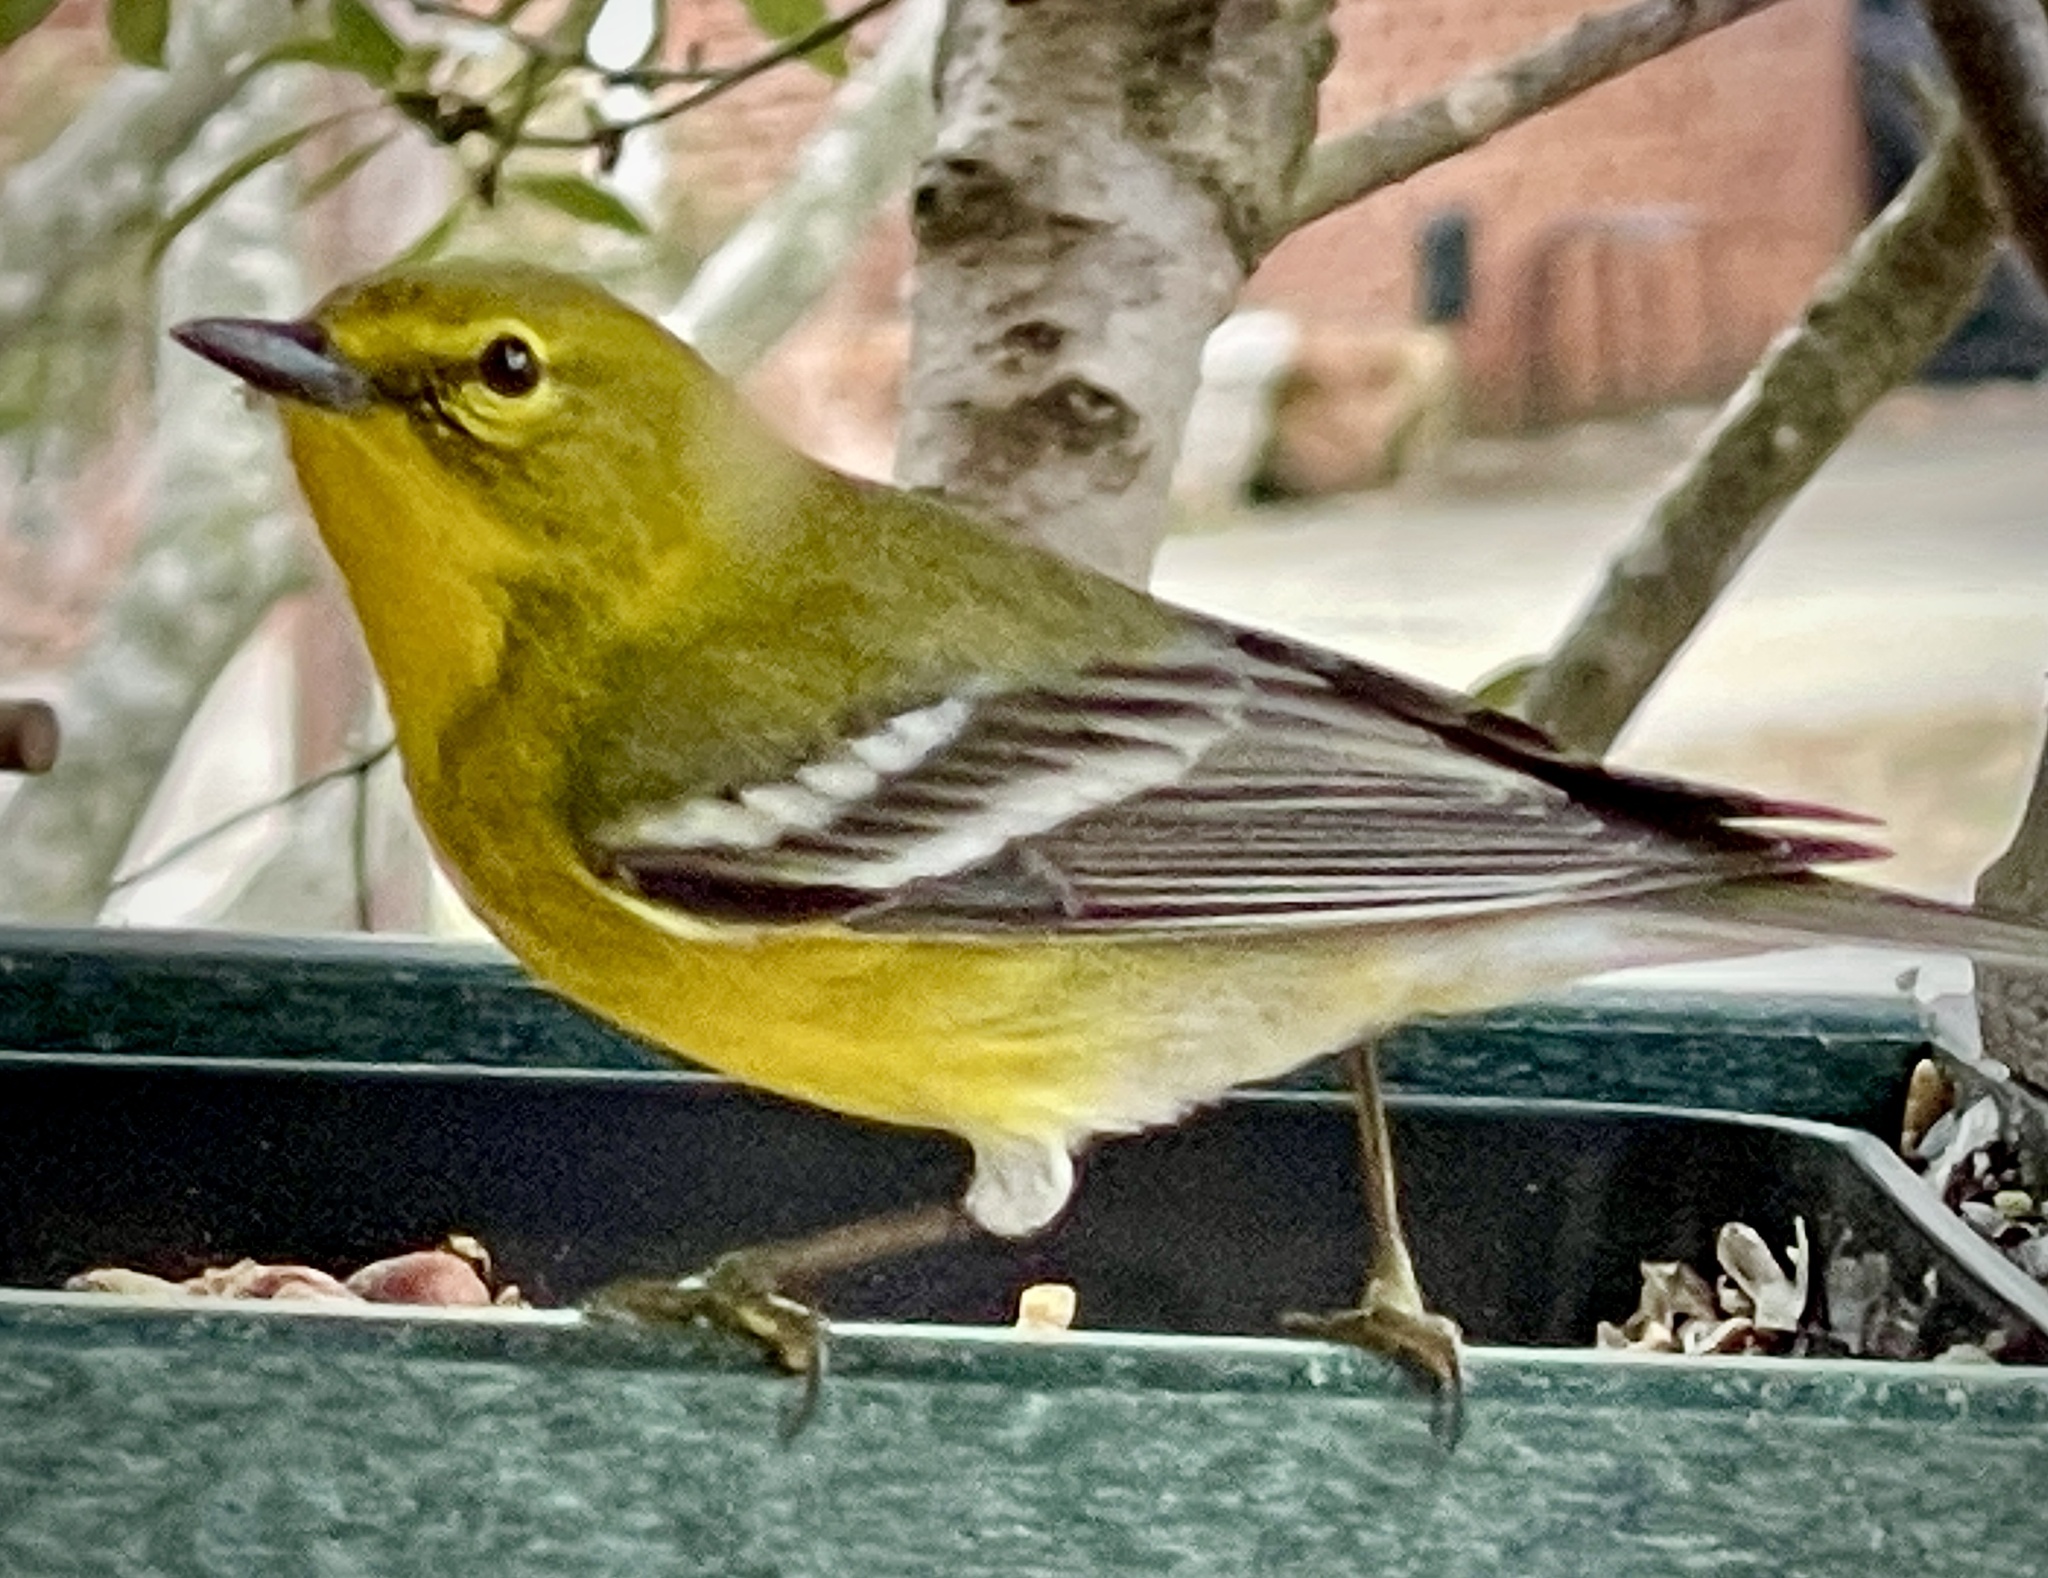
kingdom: Animalia
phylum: Chordata
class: Aves
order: Passeriformes
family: Parulidae
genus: Setophaga
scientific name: Setophaga pinus
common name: Pine warbler
